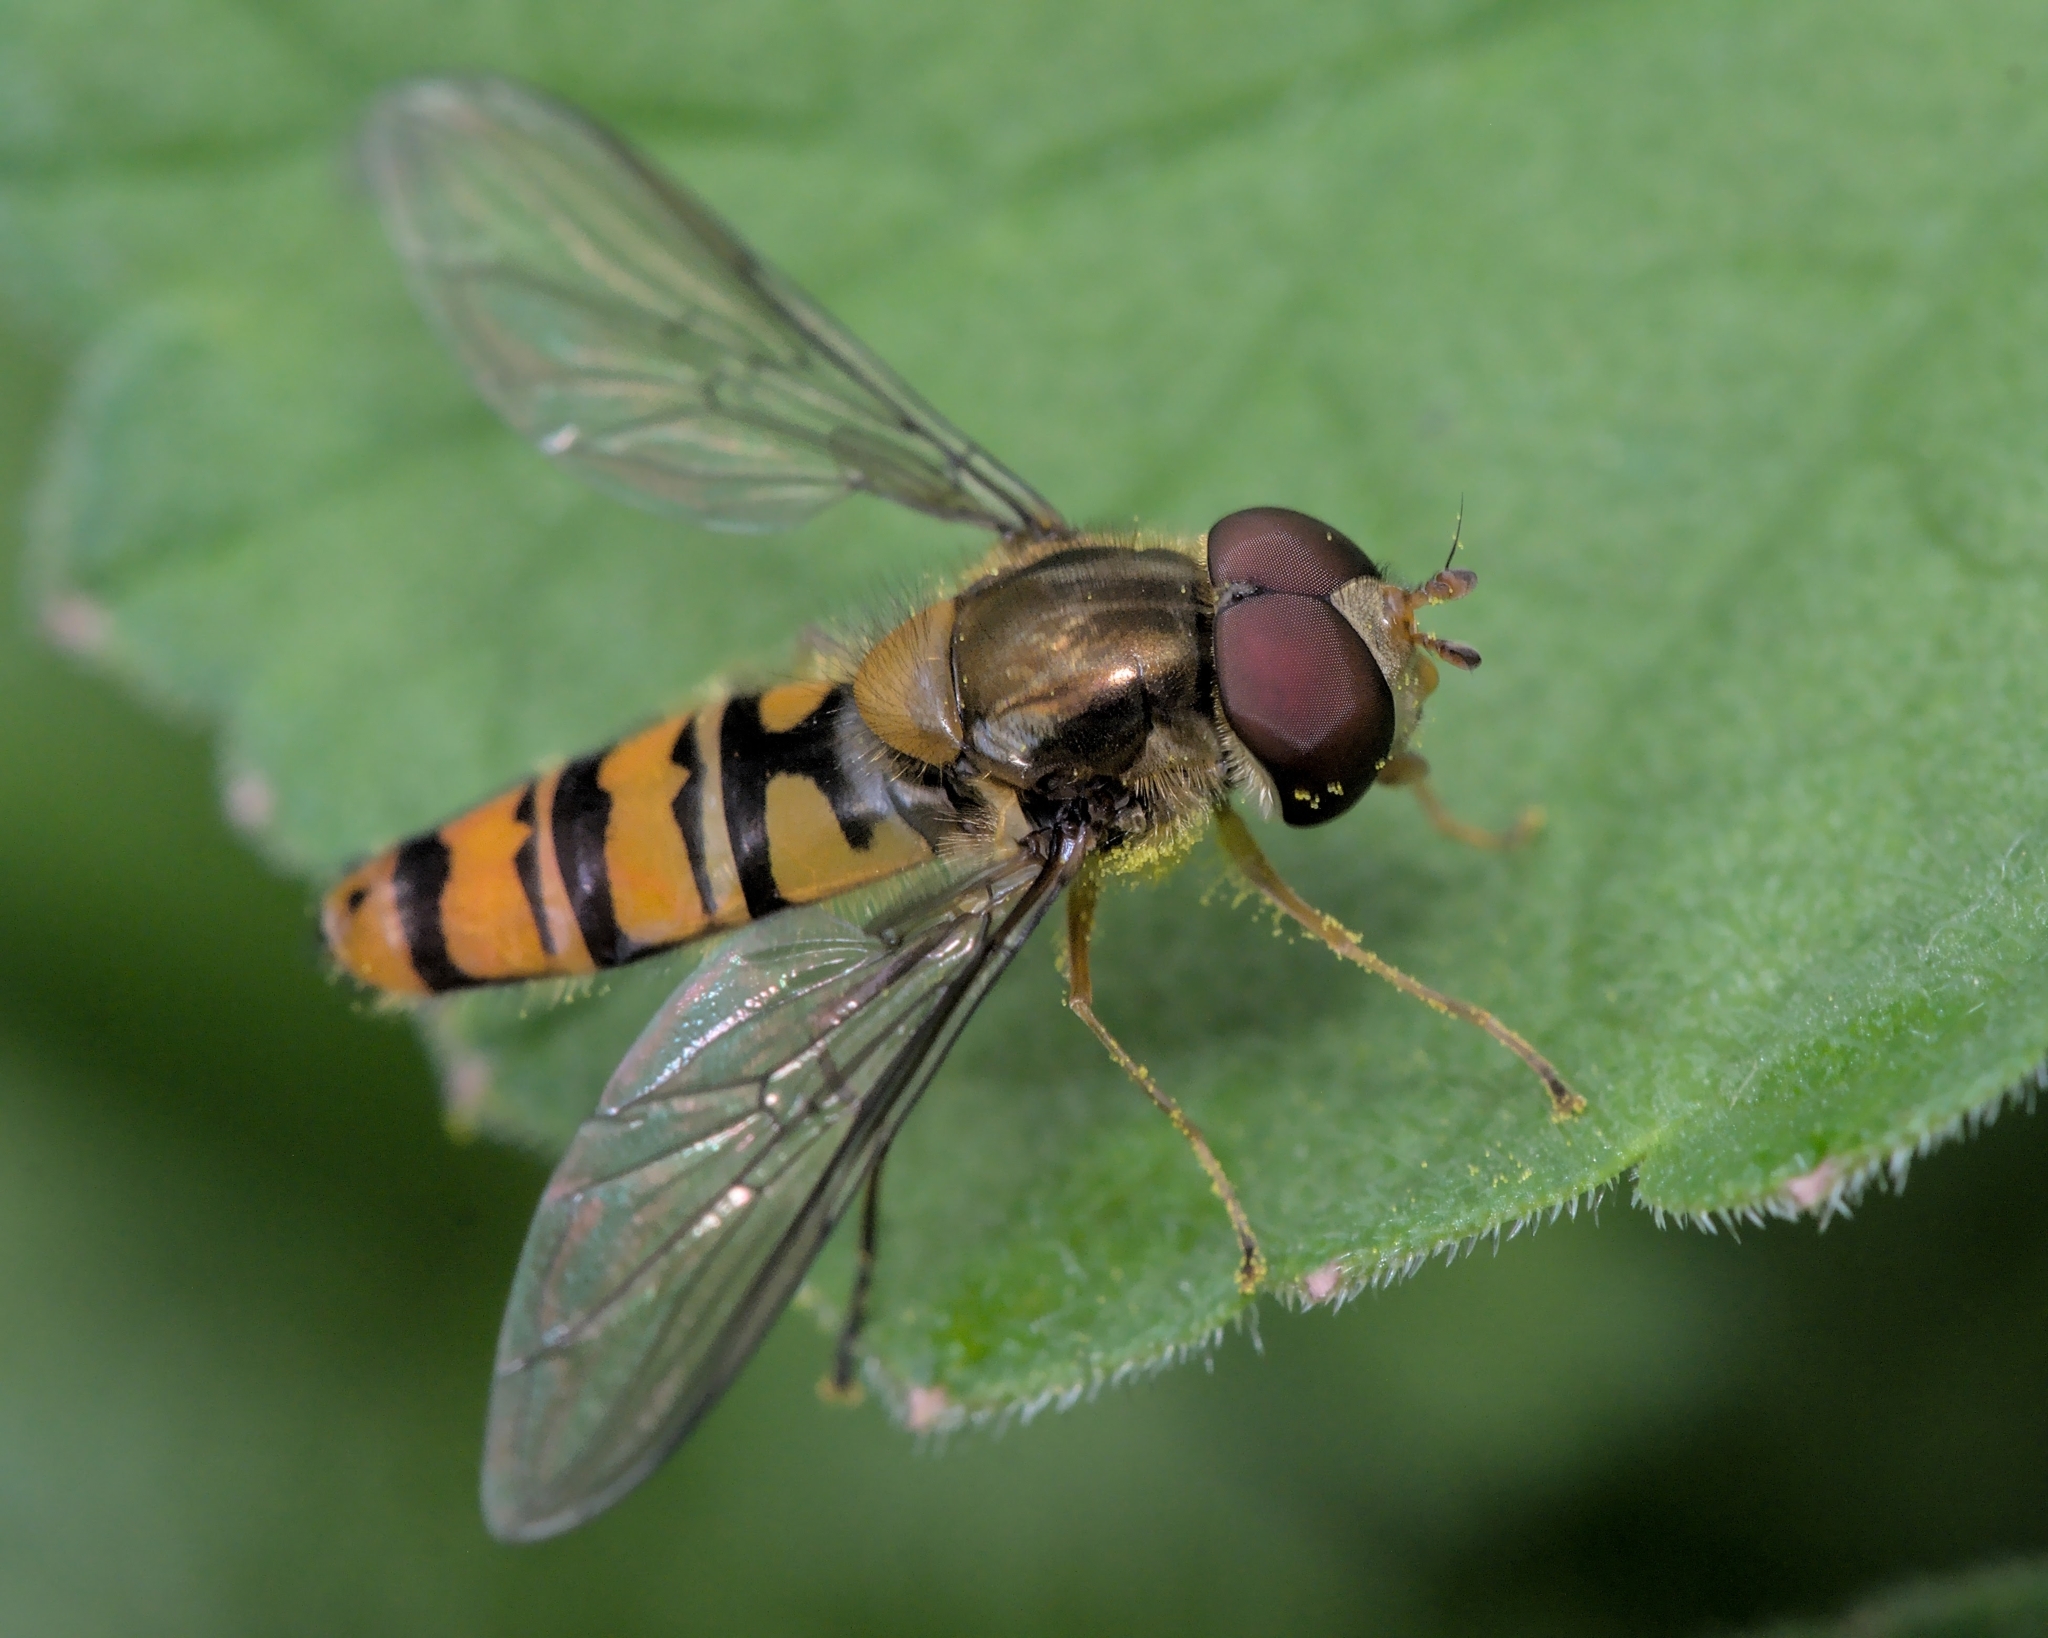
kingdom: Animalia
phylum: Arthropoda
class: Insecta
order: Diptera
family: Syrphidae
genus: Episyrphus
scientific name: Episyrphus balteatus
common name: Marmalade hoverfly
